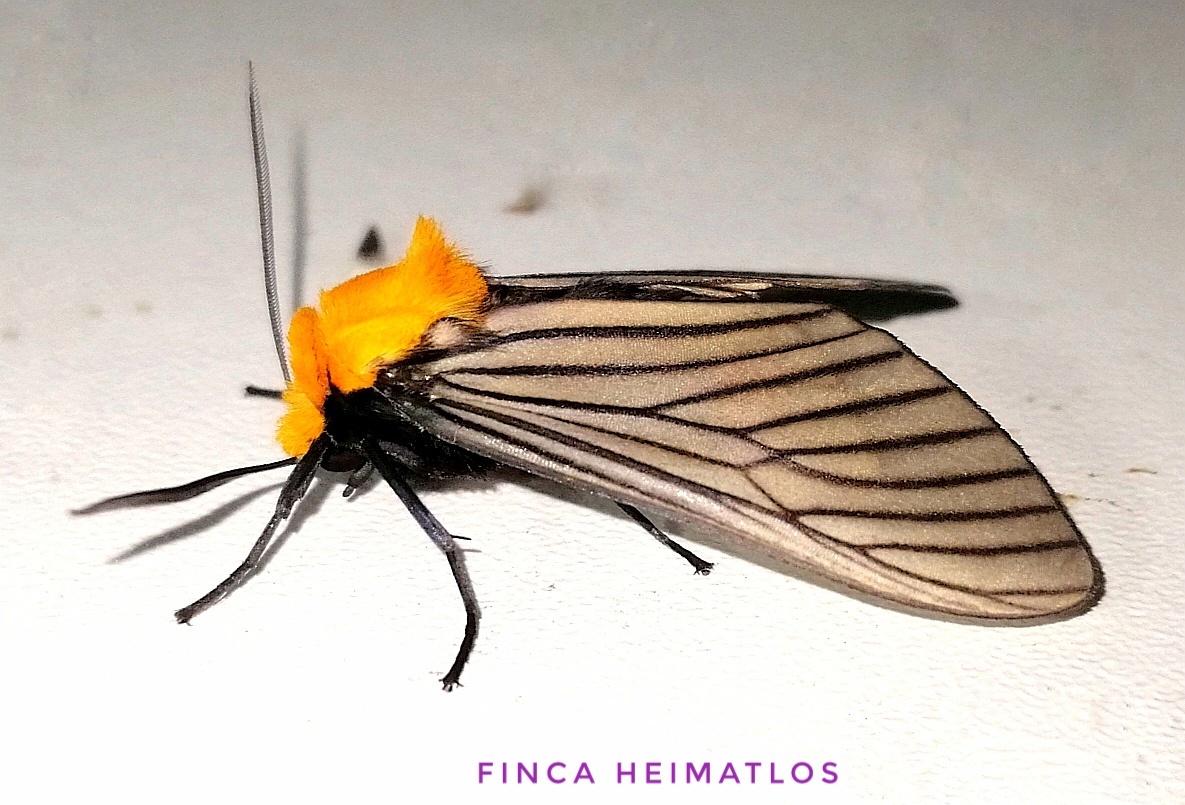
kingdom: Animalia
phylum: Arthropoda
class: Insecta
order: Lepidoptera
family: Erebidae
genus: Pseudischnocampa
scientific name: Pseudischnocampa humosa
